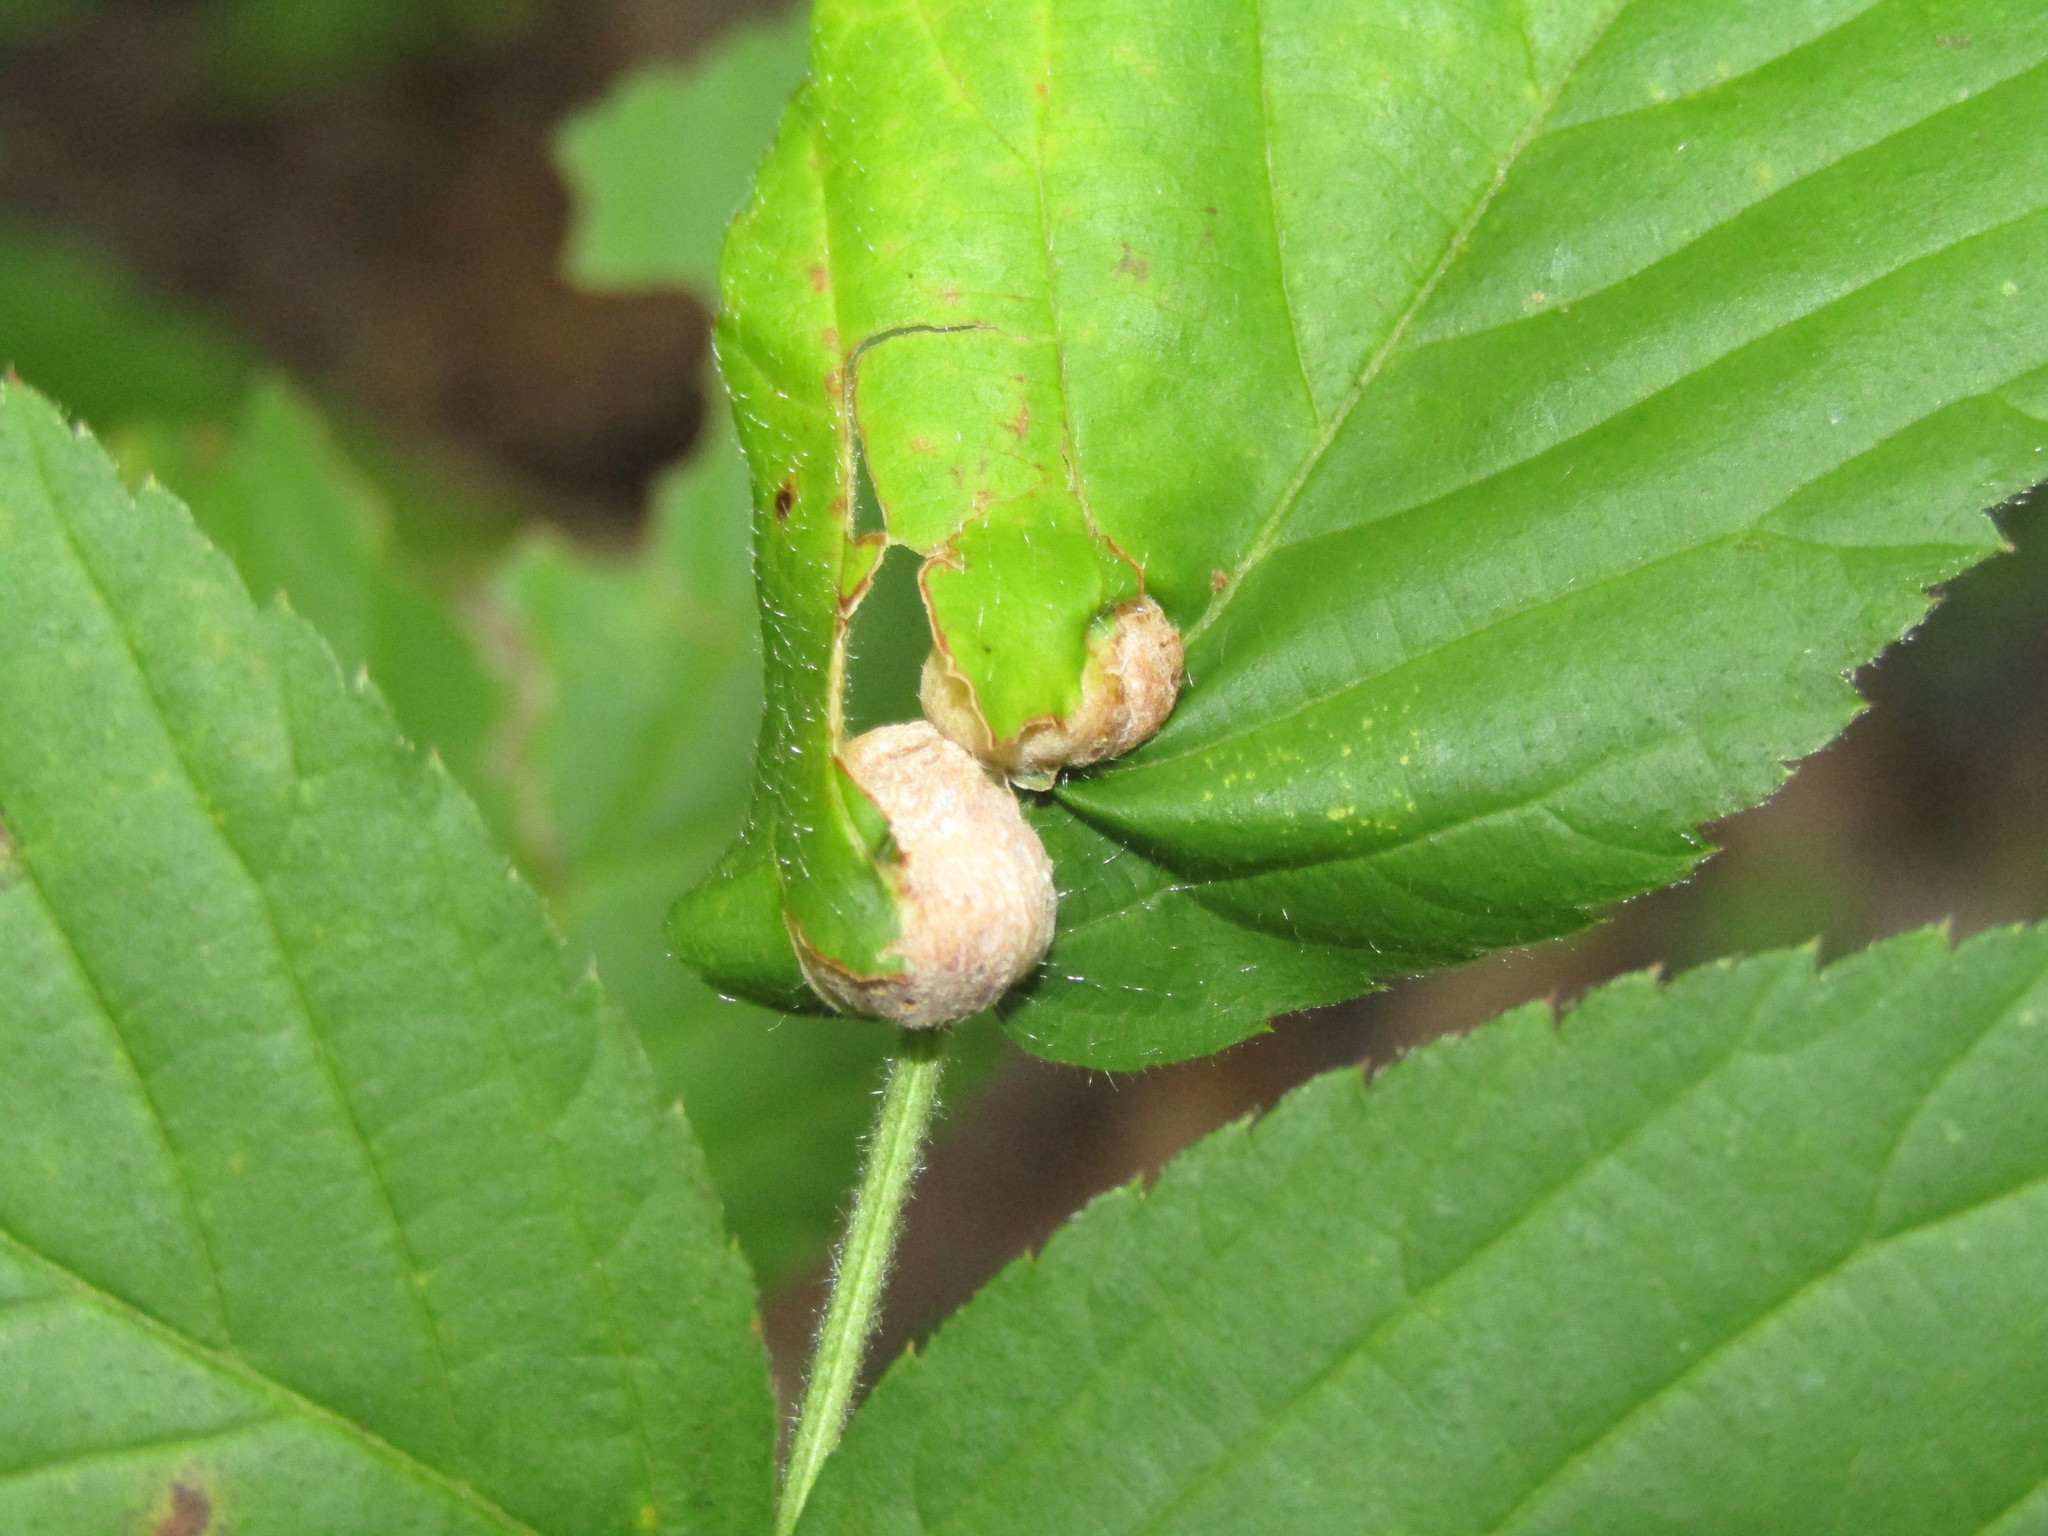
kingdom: Animalia
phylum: Arthropoda
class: Insecta
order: Diptera
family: Cecidomyiidae
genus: Neolasioptera
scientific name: Neolasioptera farinosa
